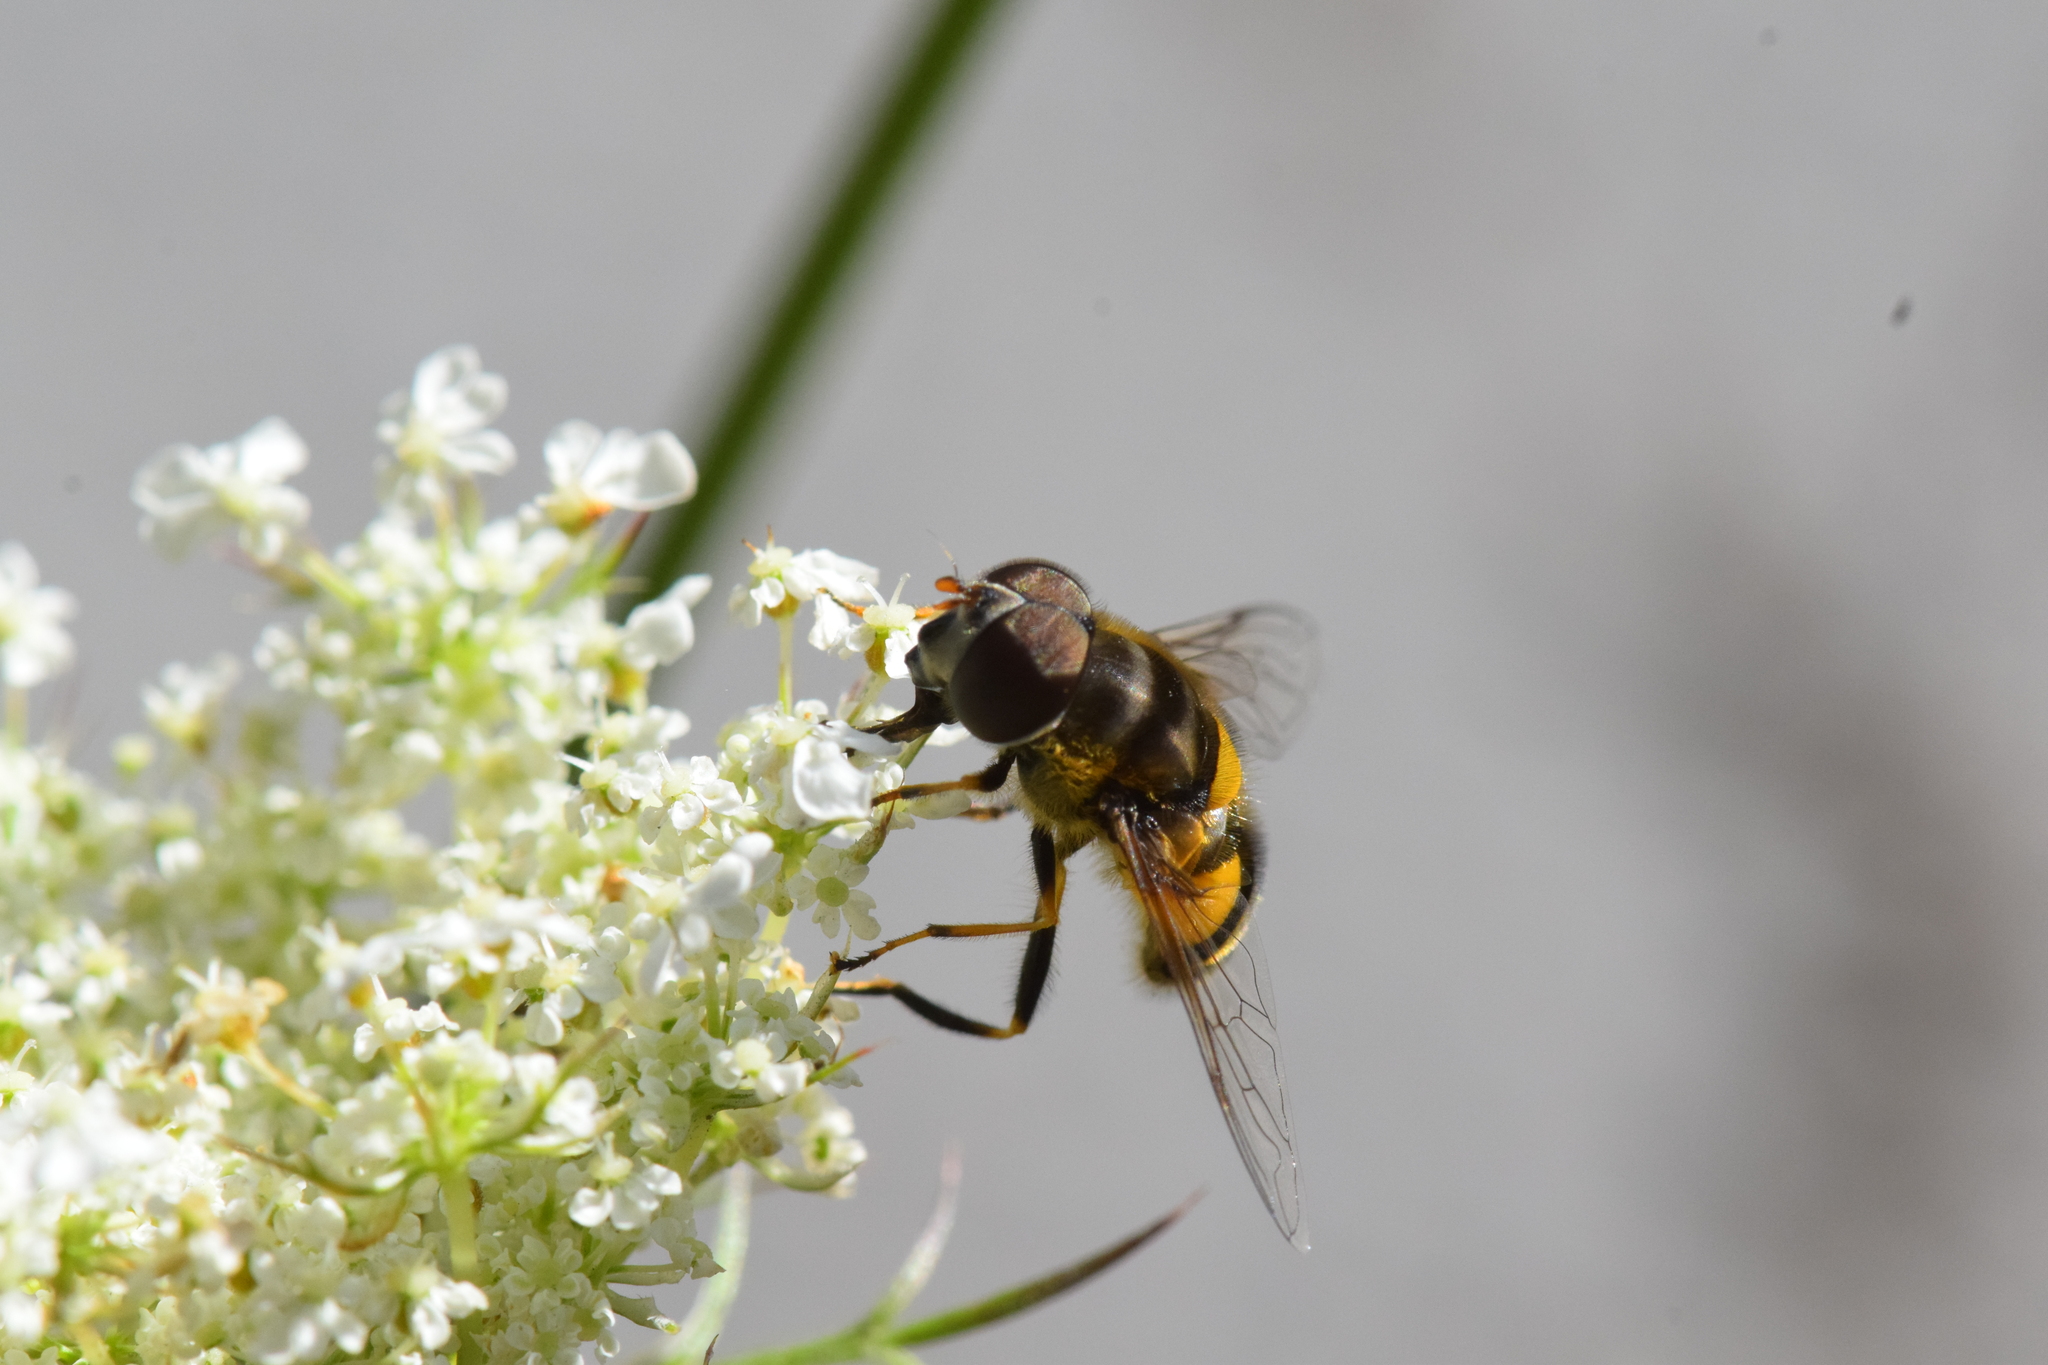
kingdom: Animalia
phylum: Arthropoda
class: Insecta
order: Diptera
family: Syrphidae
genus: Eristalis
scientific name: Eristalis transversa
